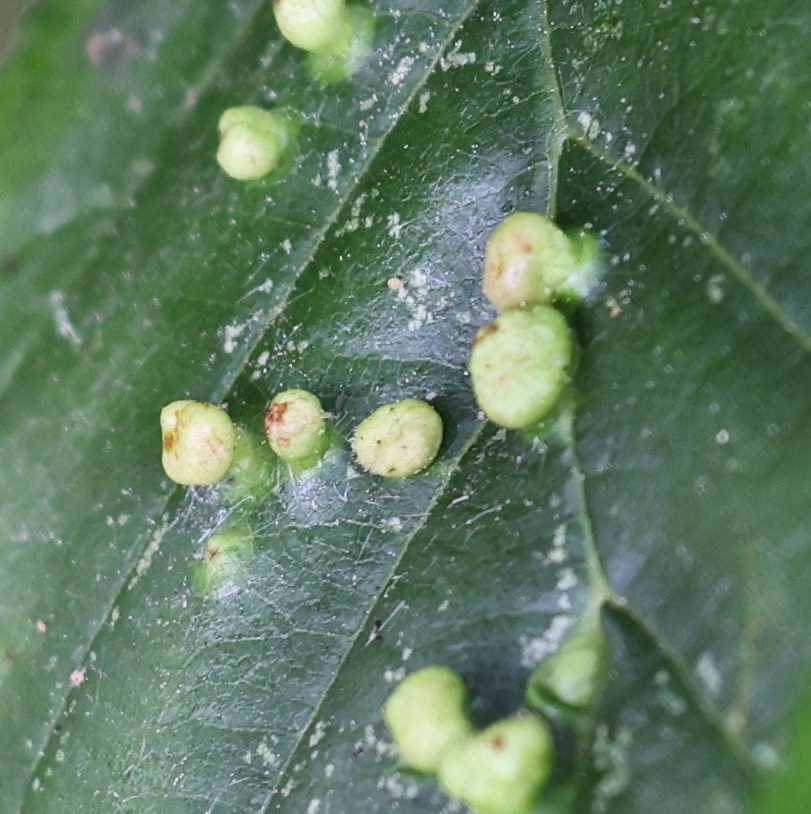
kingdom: Animalia
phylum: Arthropoda
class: Arachnida
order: Trombidiformes
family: Eriophyidae
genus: Eriophyes
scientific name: Eriophyes laevis
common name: Alder leaf gall mite
